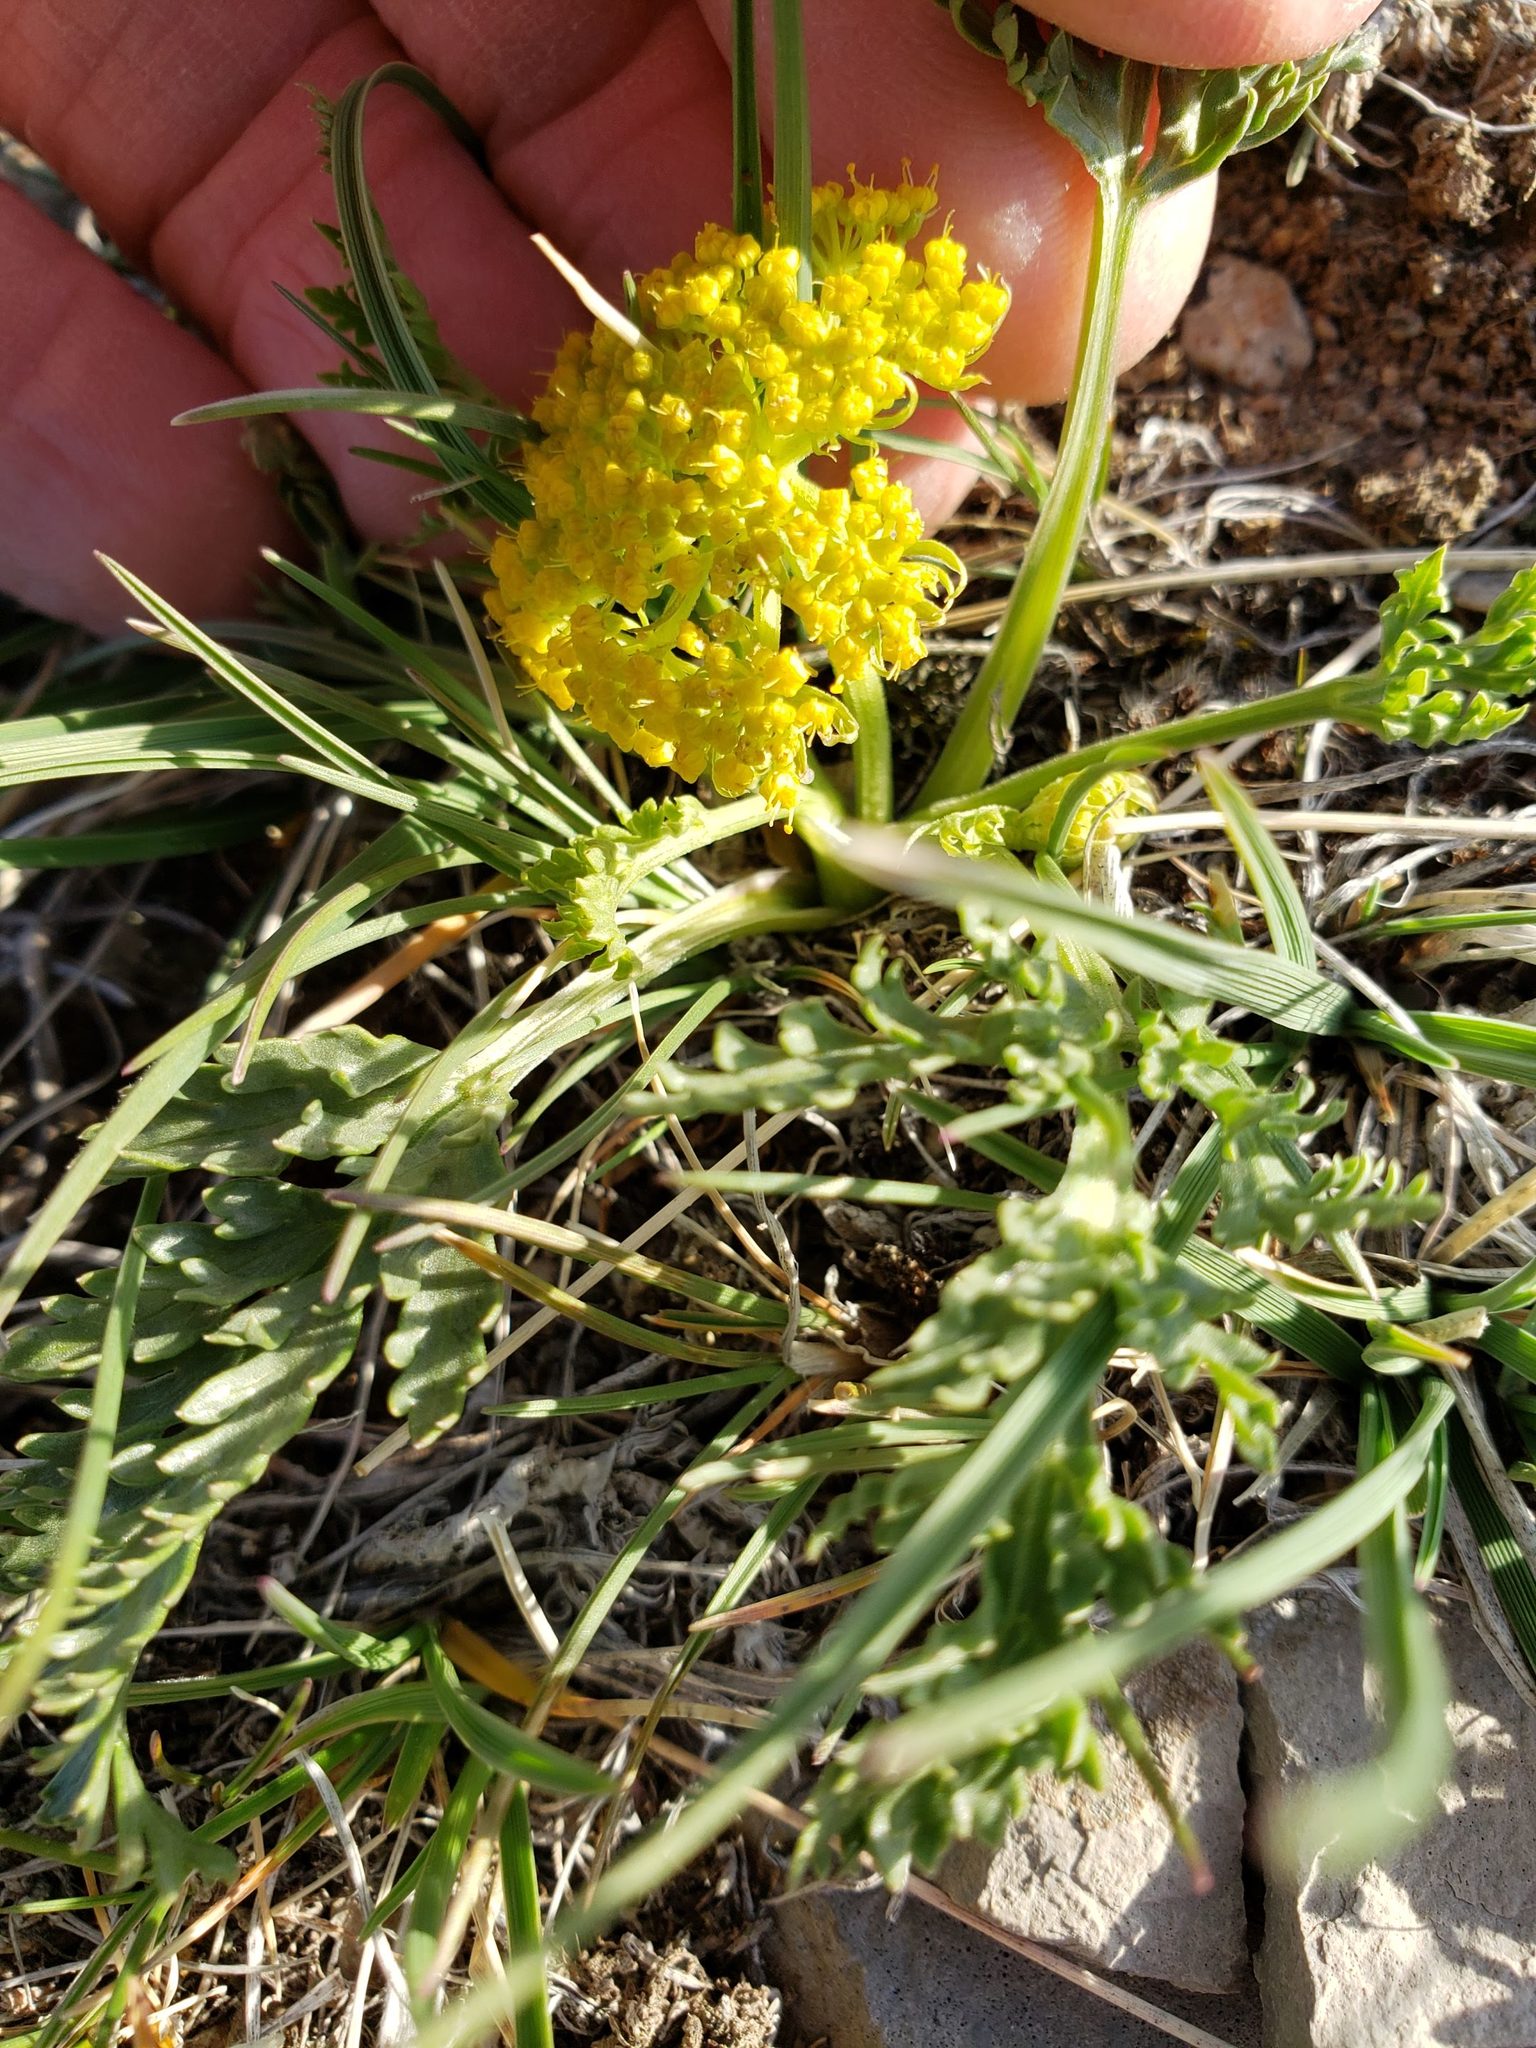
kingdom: Plantae
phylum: Tracheophyta
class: Magnoliopsida
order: Apiales
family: Apiaceae
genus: Musineon
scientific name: Musineon divaricatum
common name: Plains musineon
